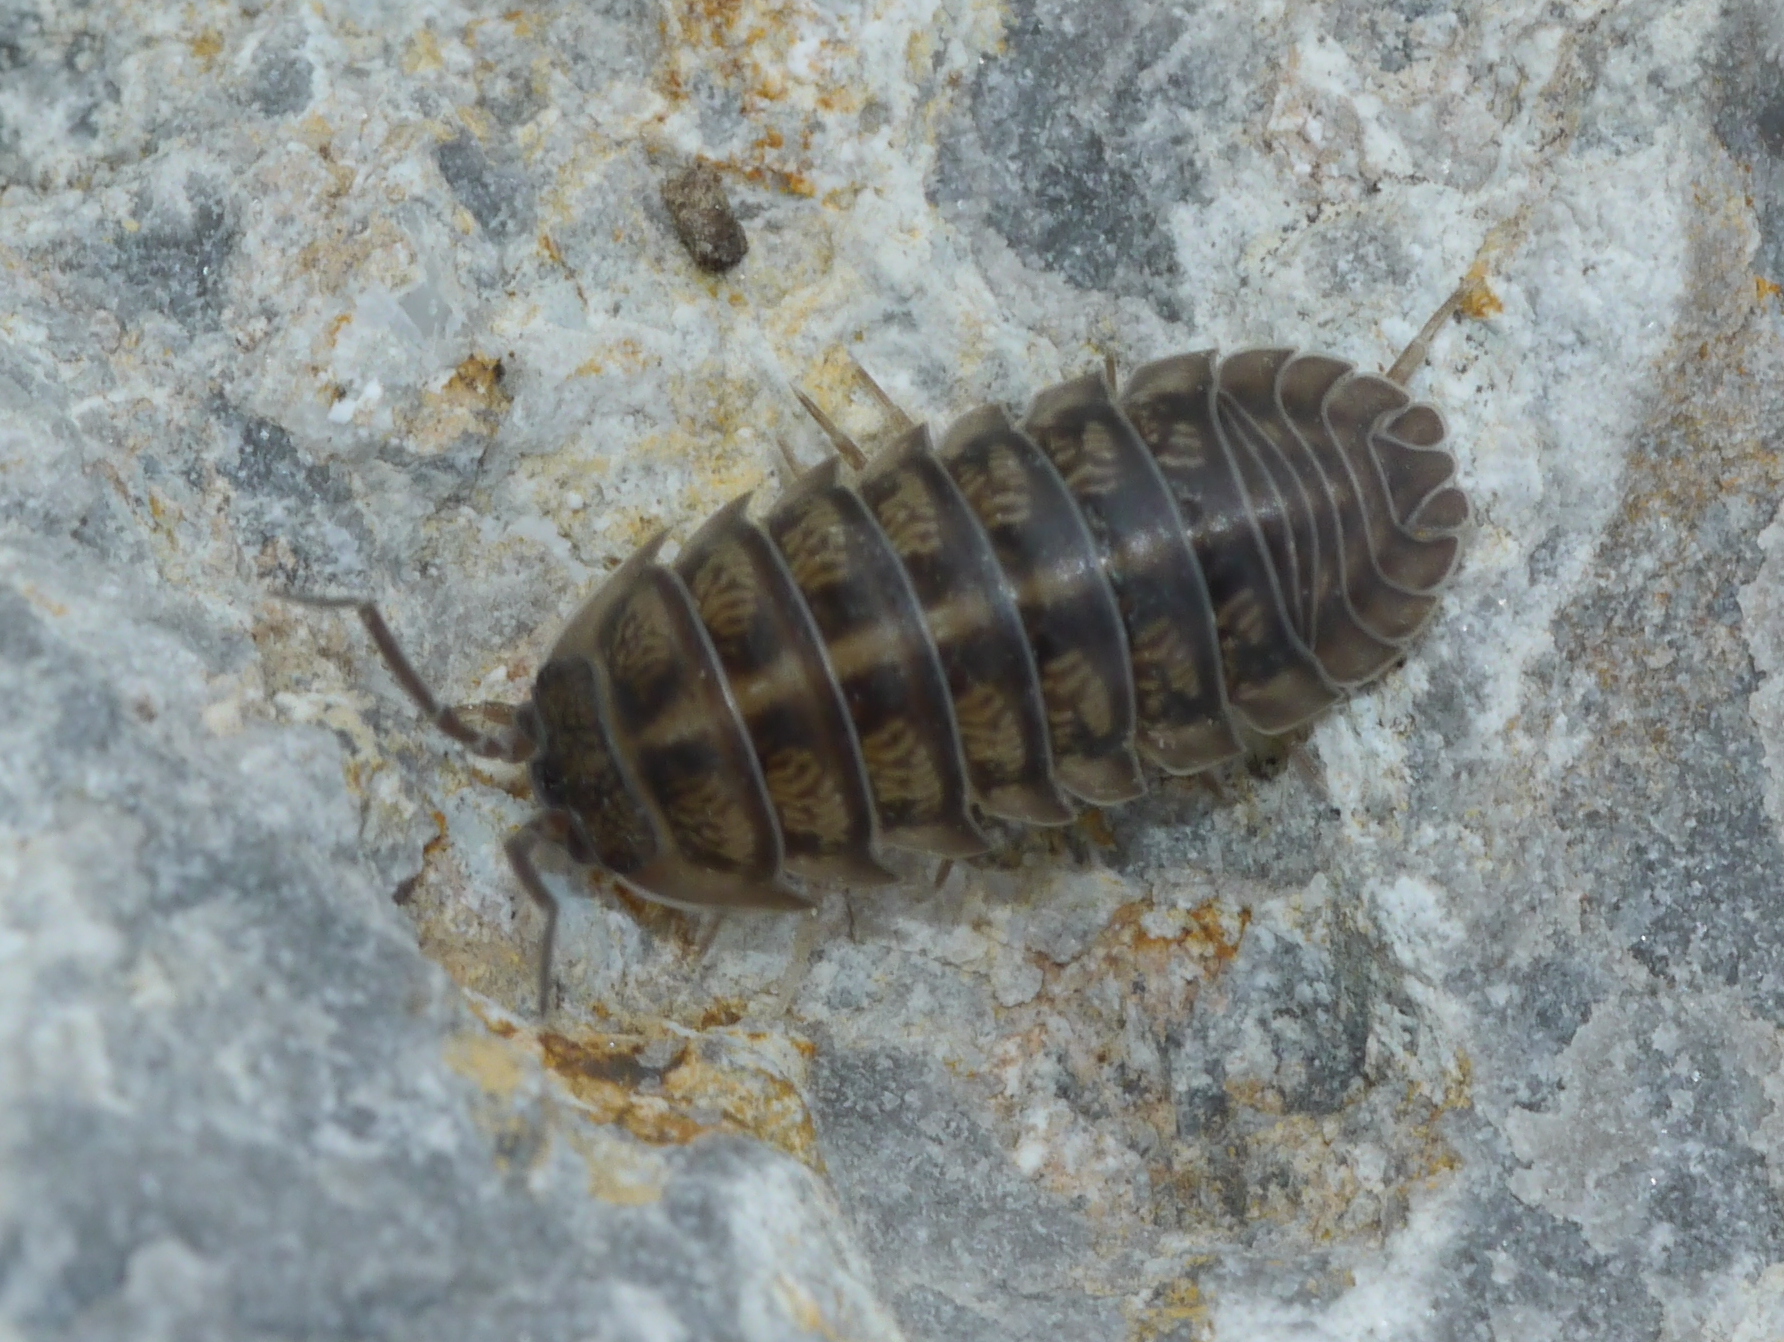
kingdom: Animalia
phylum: Arthropoda
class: Malacostraca
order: Isopoda
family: Armadillidiidae
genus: Armadillidium
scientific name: Armadillidium nasatum
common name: Isopod
